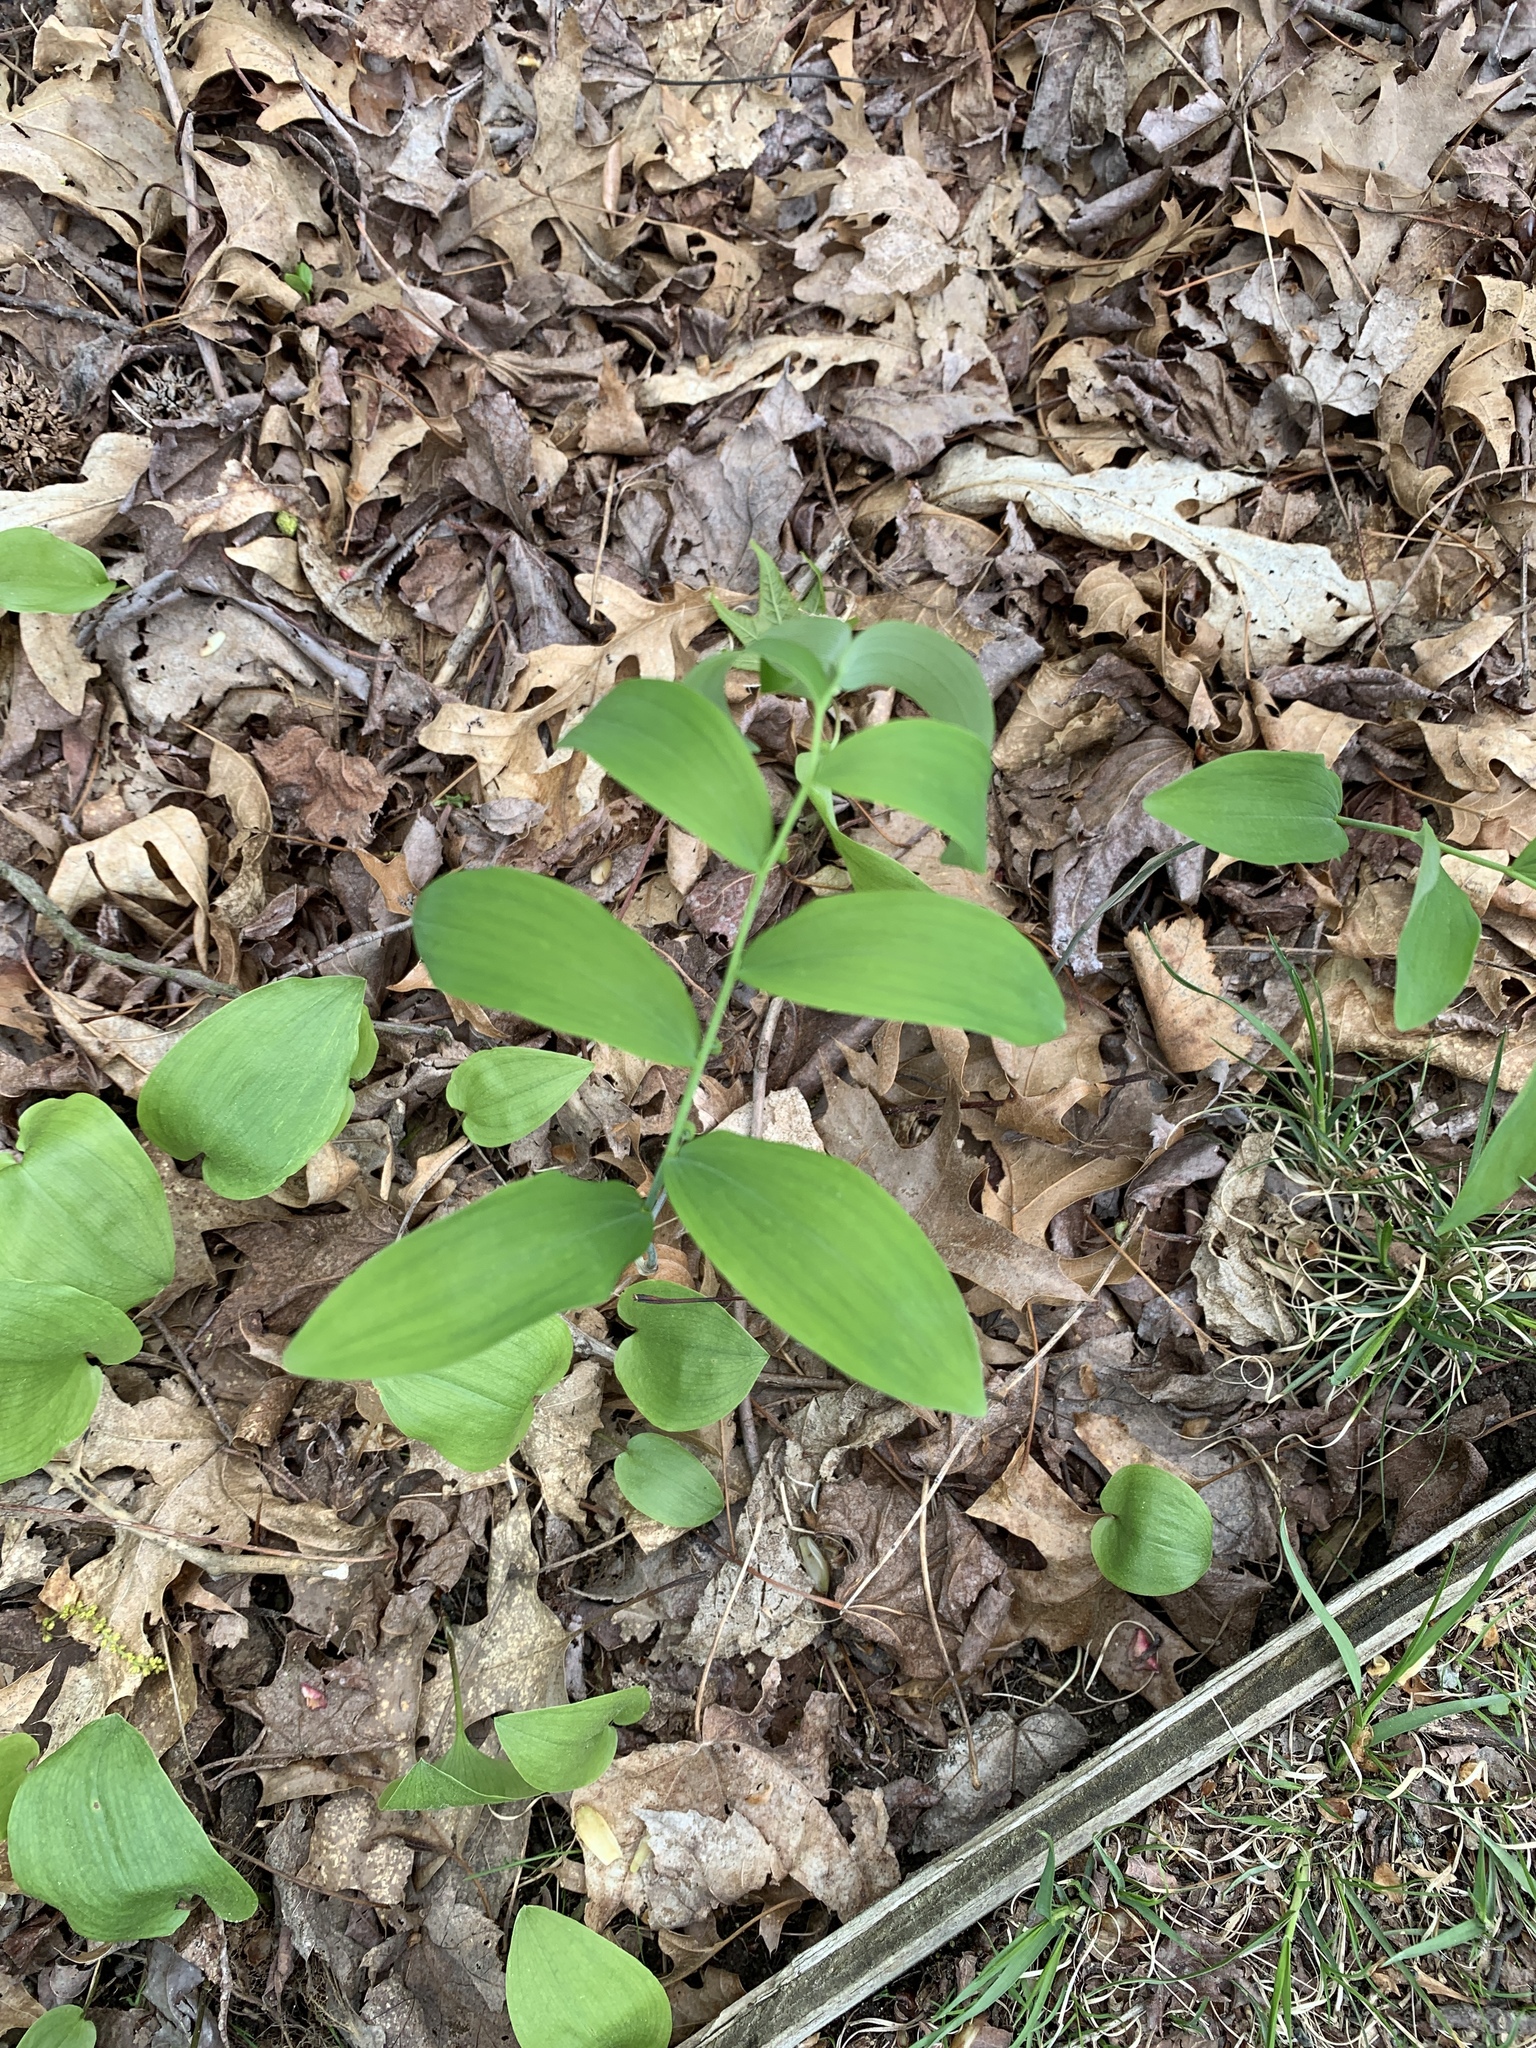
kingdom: Plantae
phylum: Tracheophyta
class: Liliopsida
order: Asparagales
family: Asparagaceae
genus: Polygonatum
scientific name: Polygonatum pubescens
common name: Downy solomon's seal
